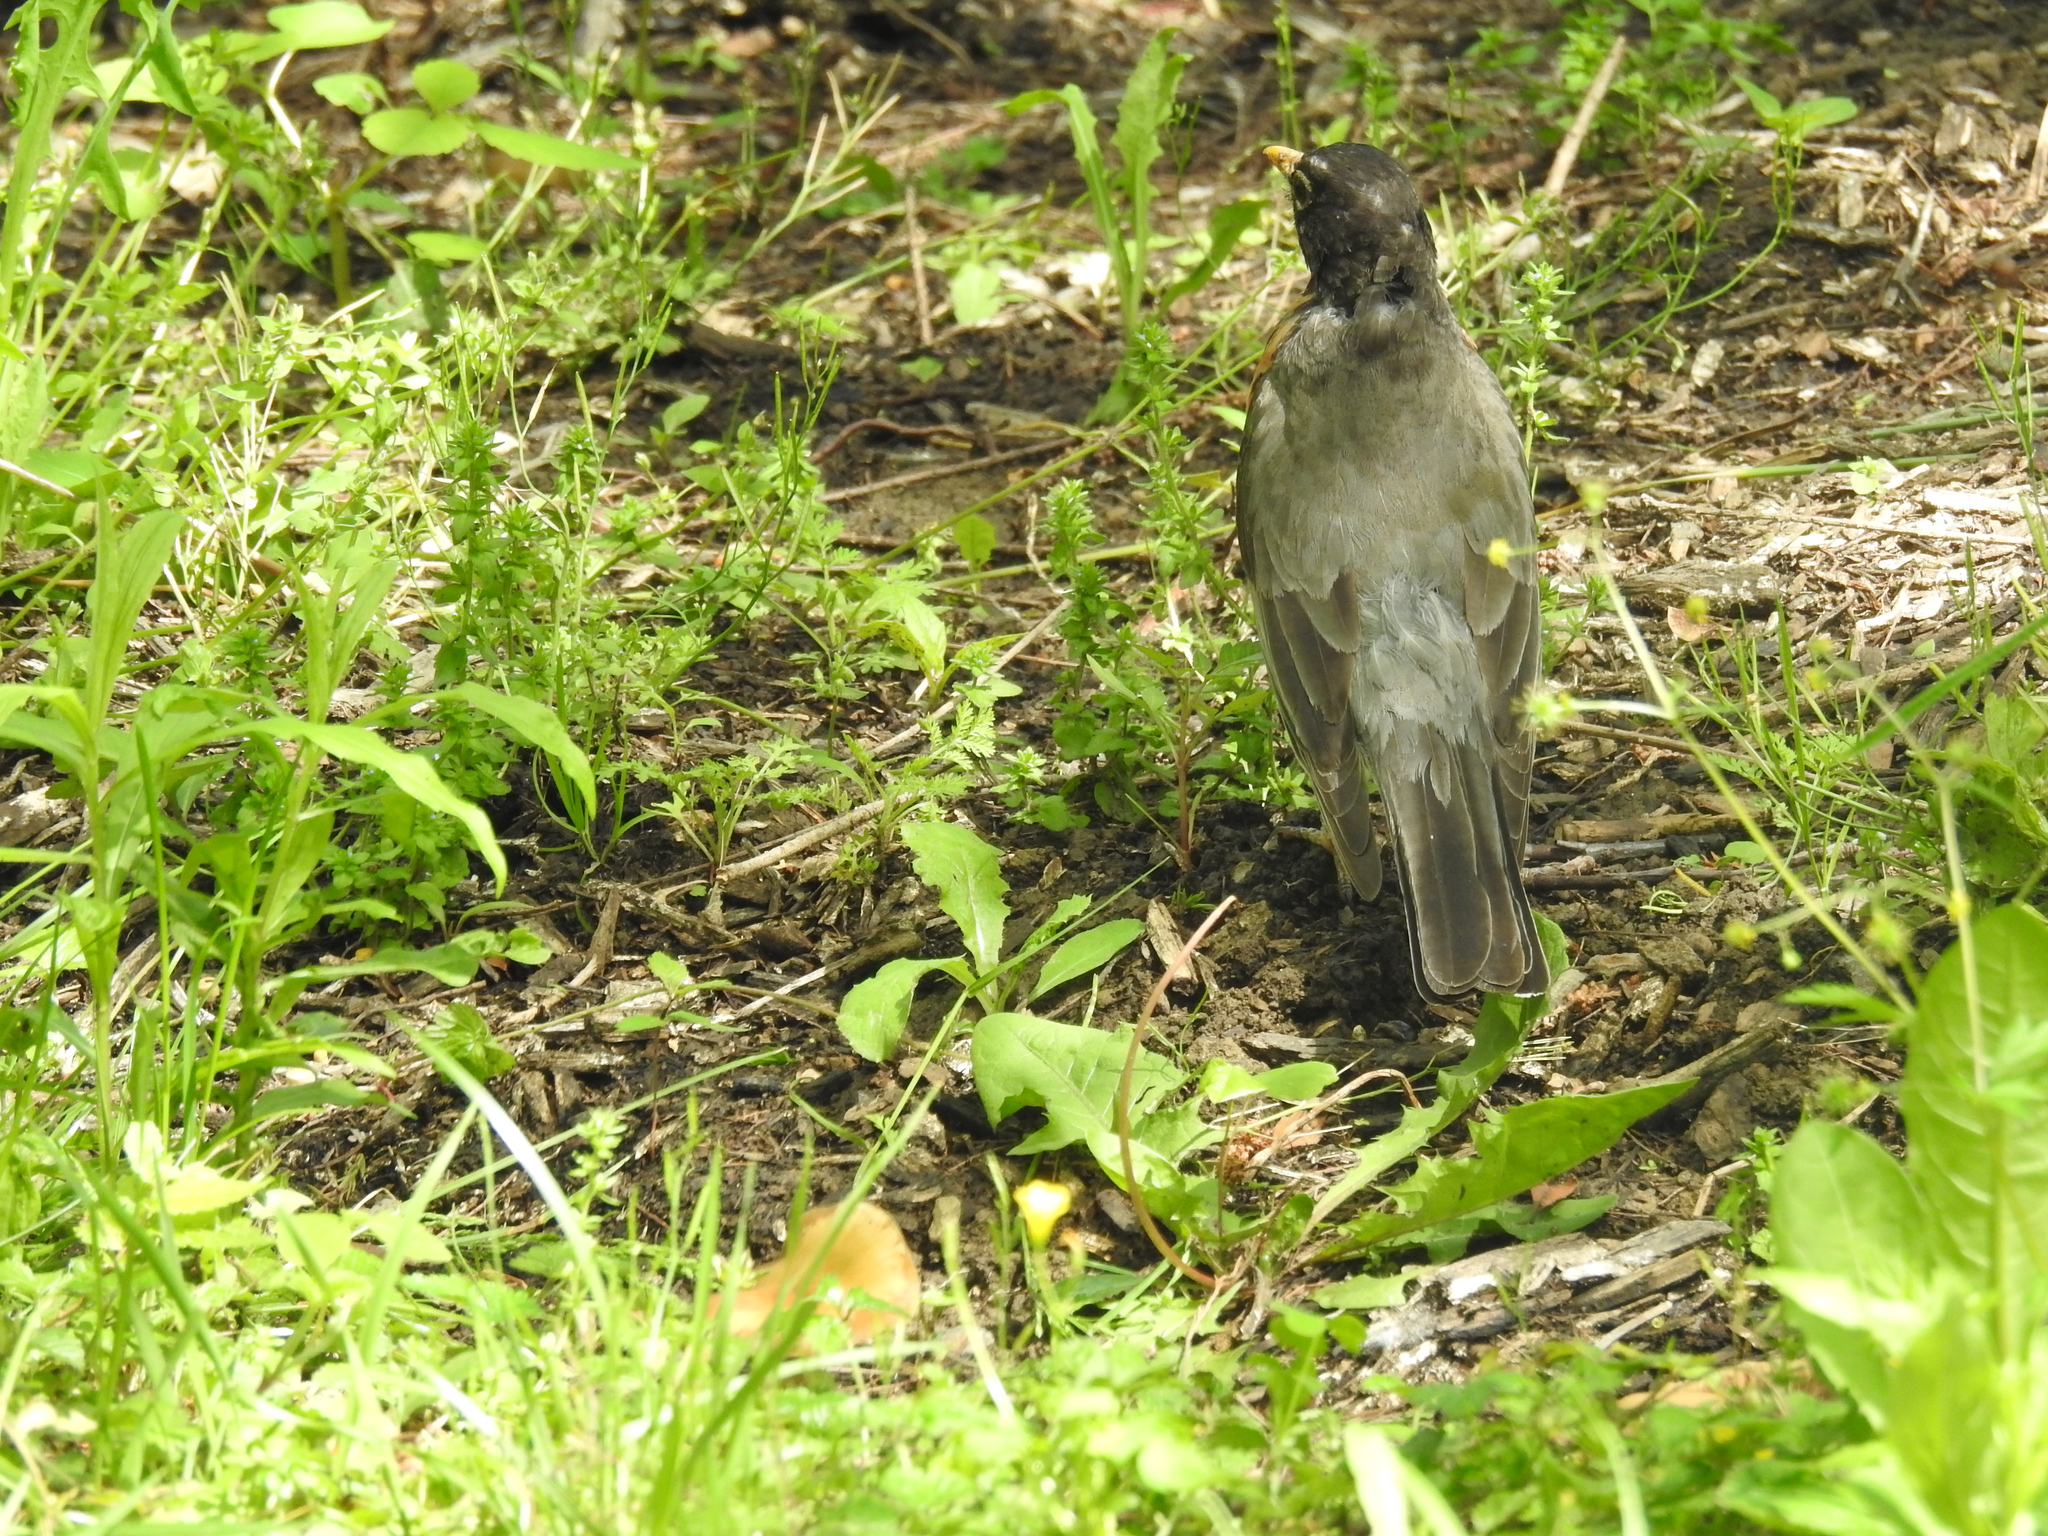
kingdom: Animalia
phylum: Chordata
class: Aves
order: Passeriformes
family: Turdidae
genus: Turdus
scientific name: Turdus migratorius
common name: American robin
